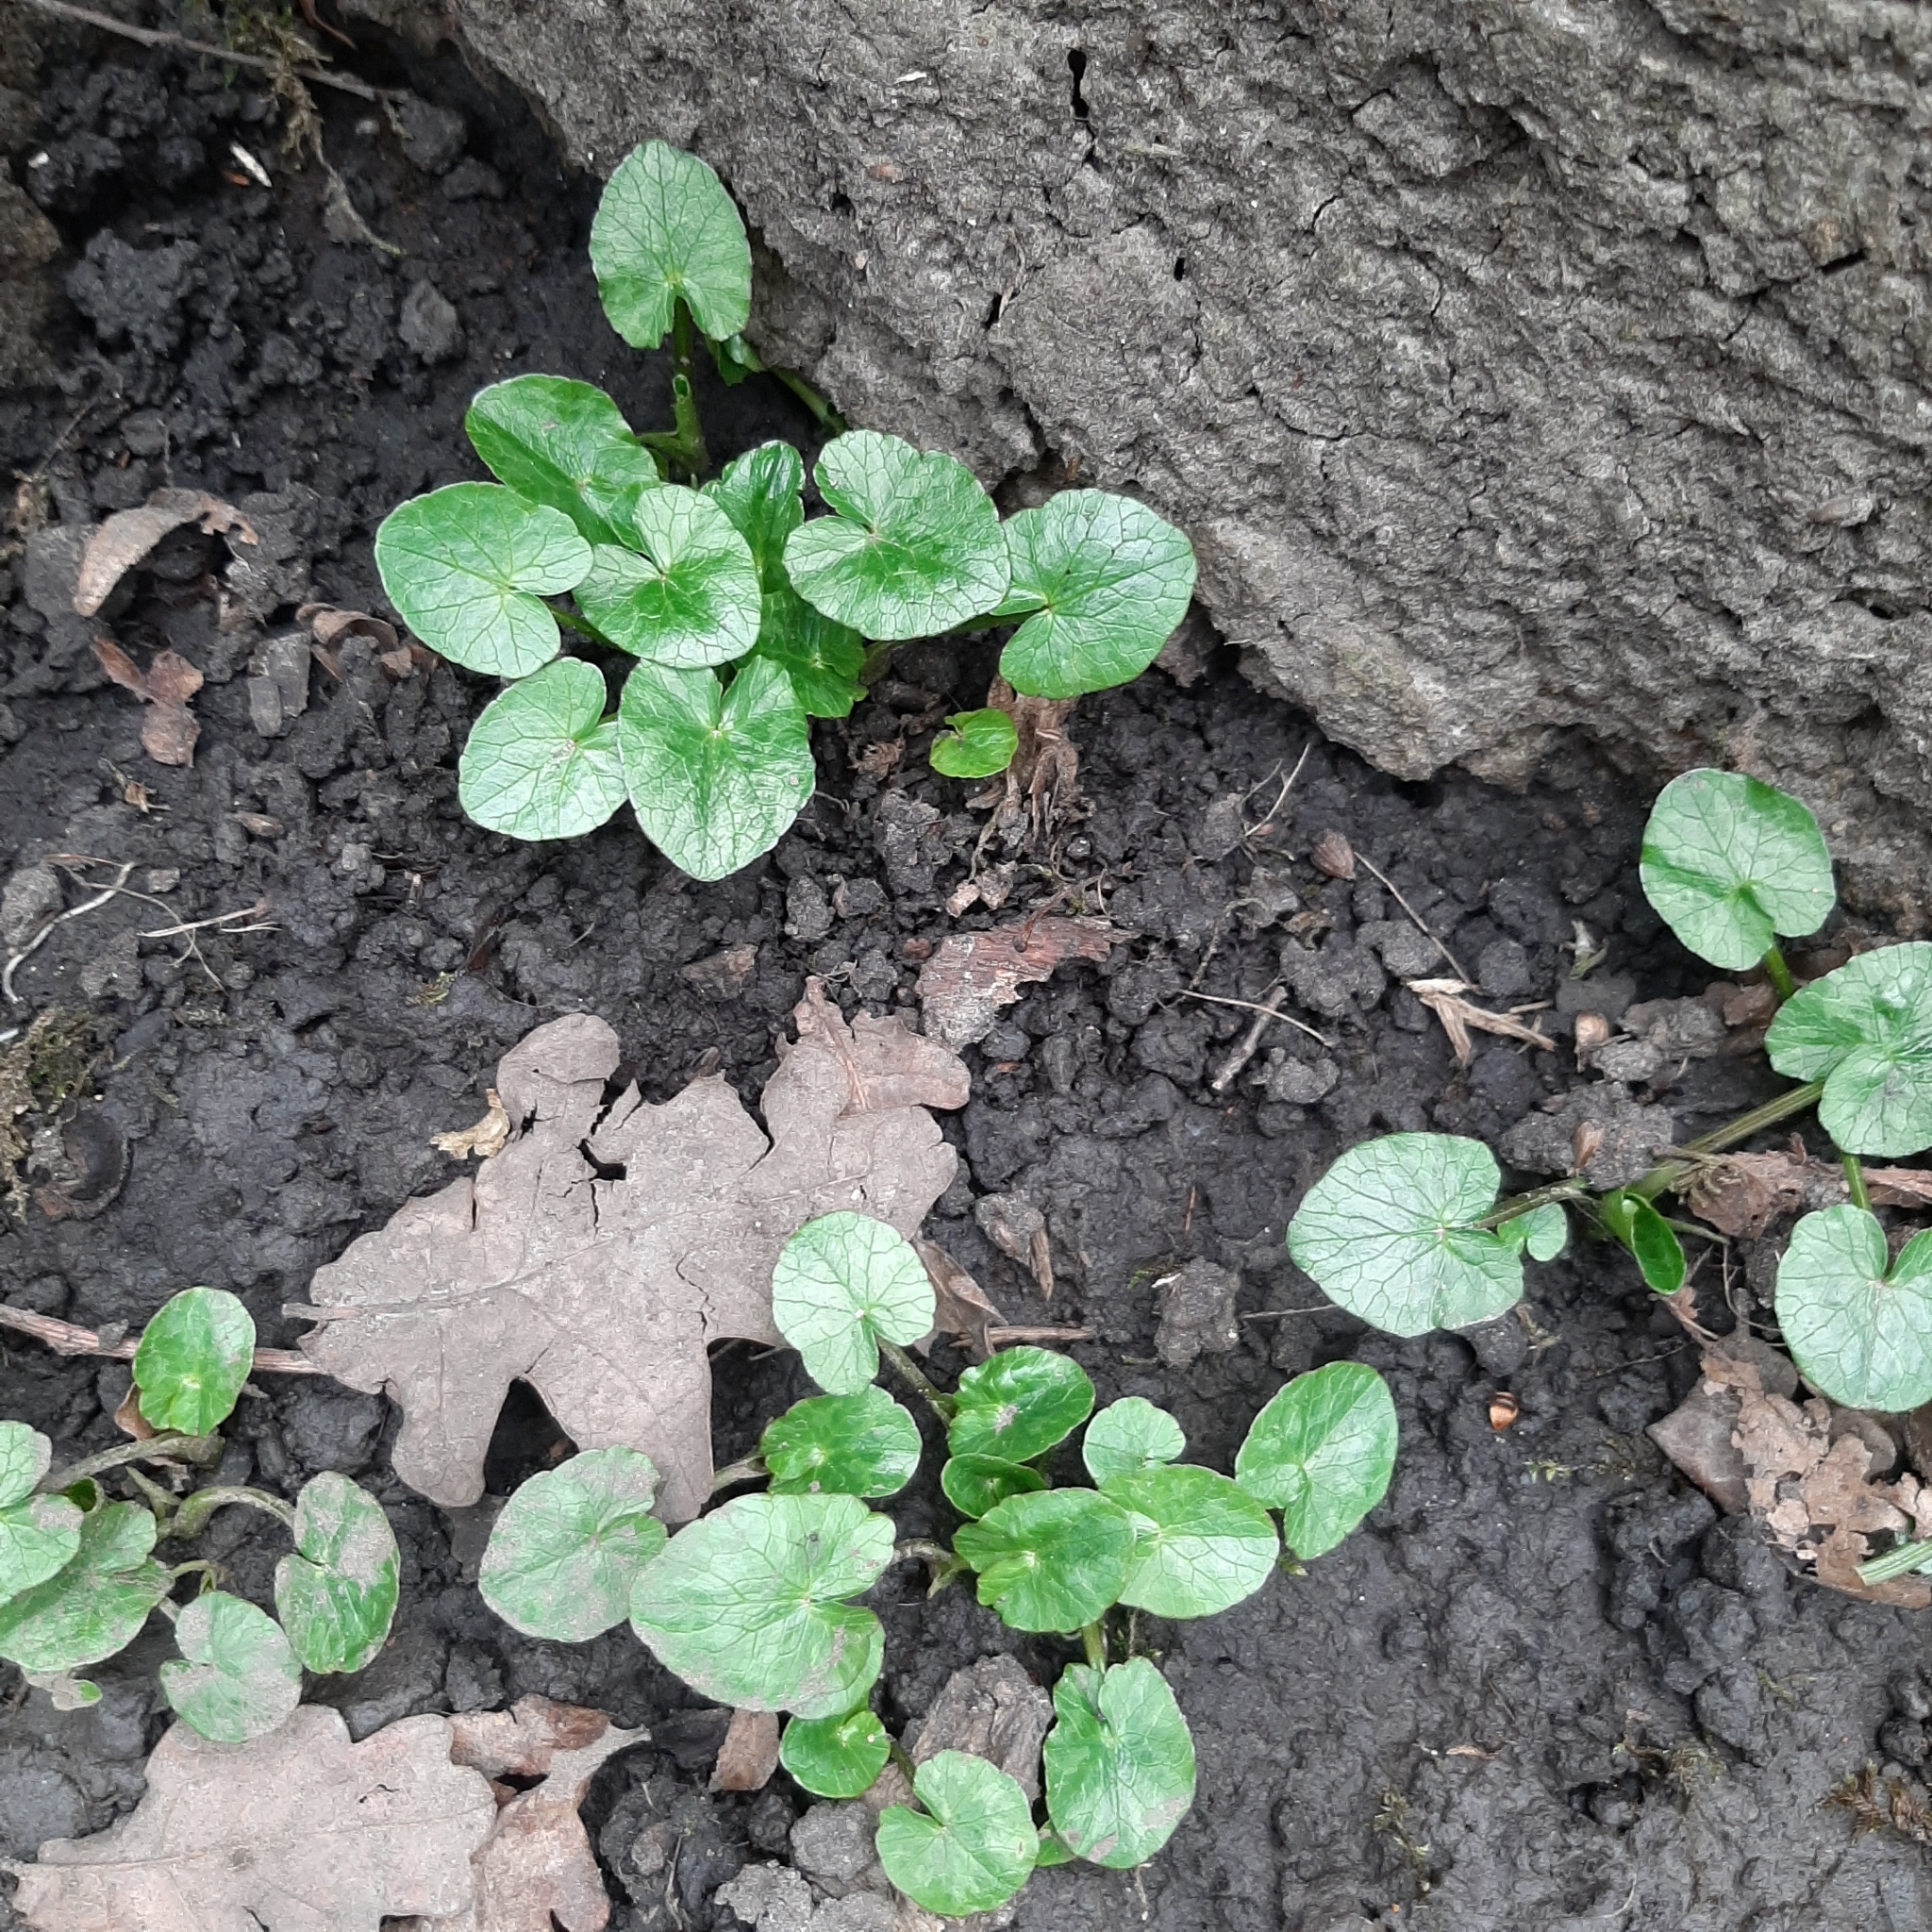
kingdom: Plantae
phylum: Tracheophyta
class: Magnoliopsida
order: Ranunculales
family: Ranunculaceae
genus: Ficaria
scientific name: Ficaria verna
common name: Lesser celandine
